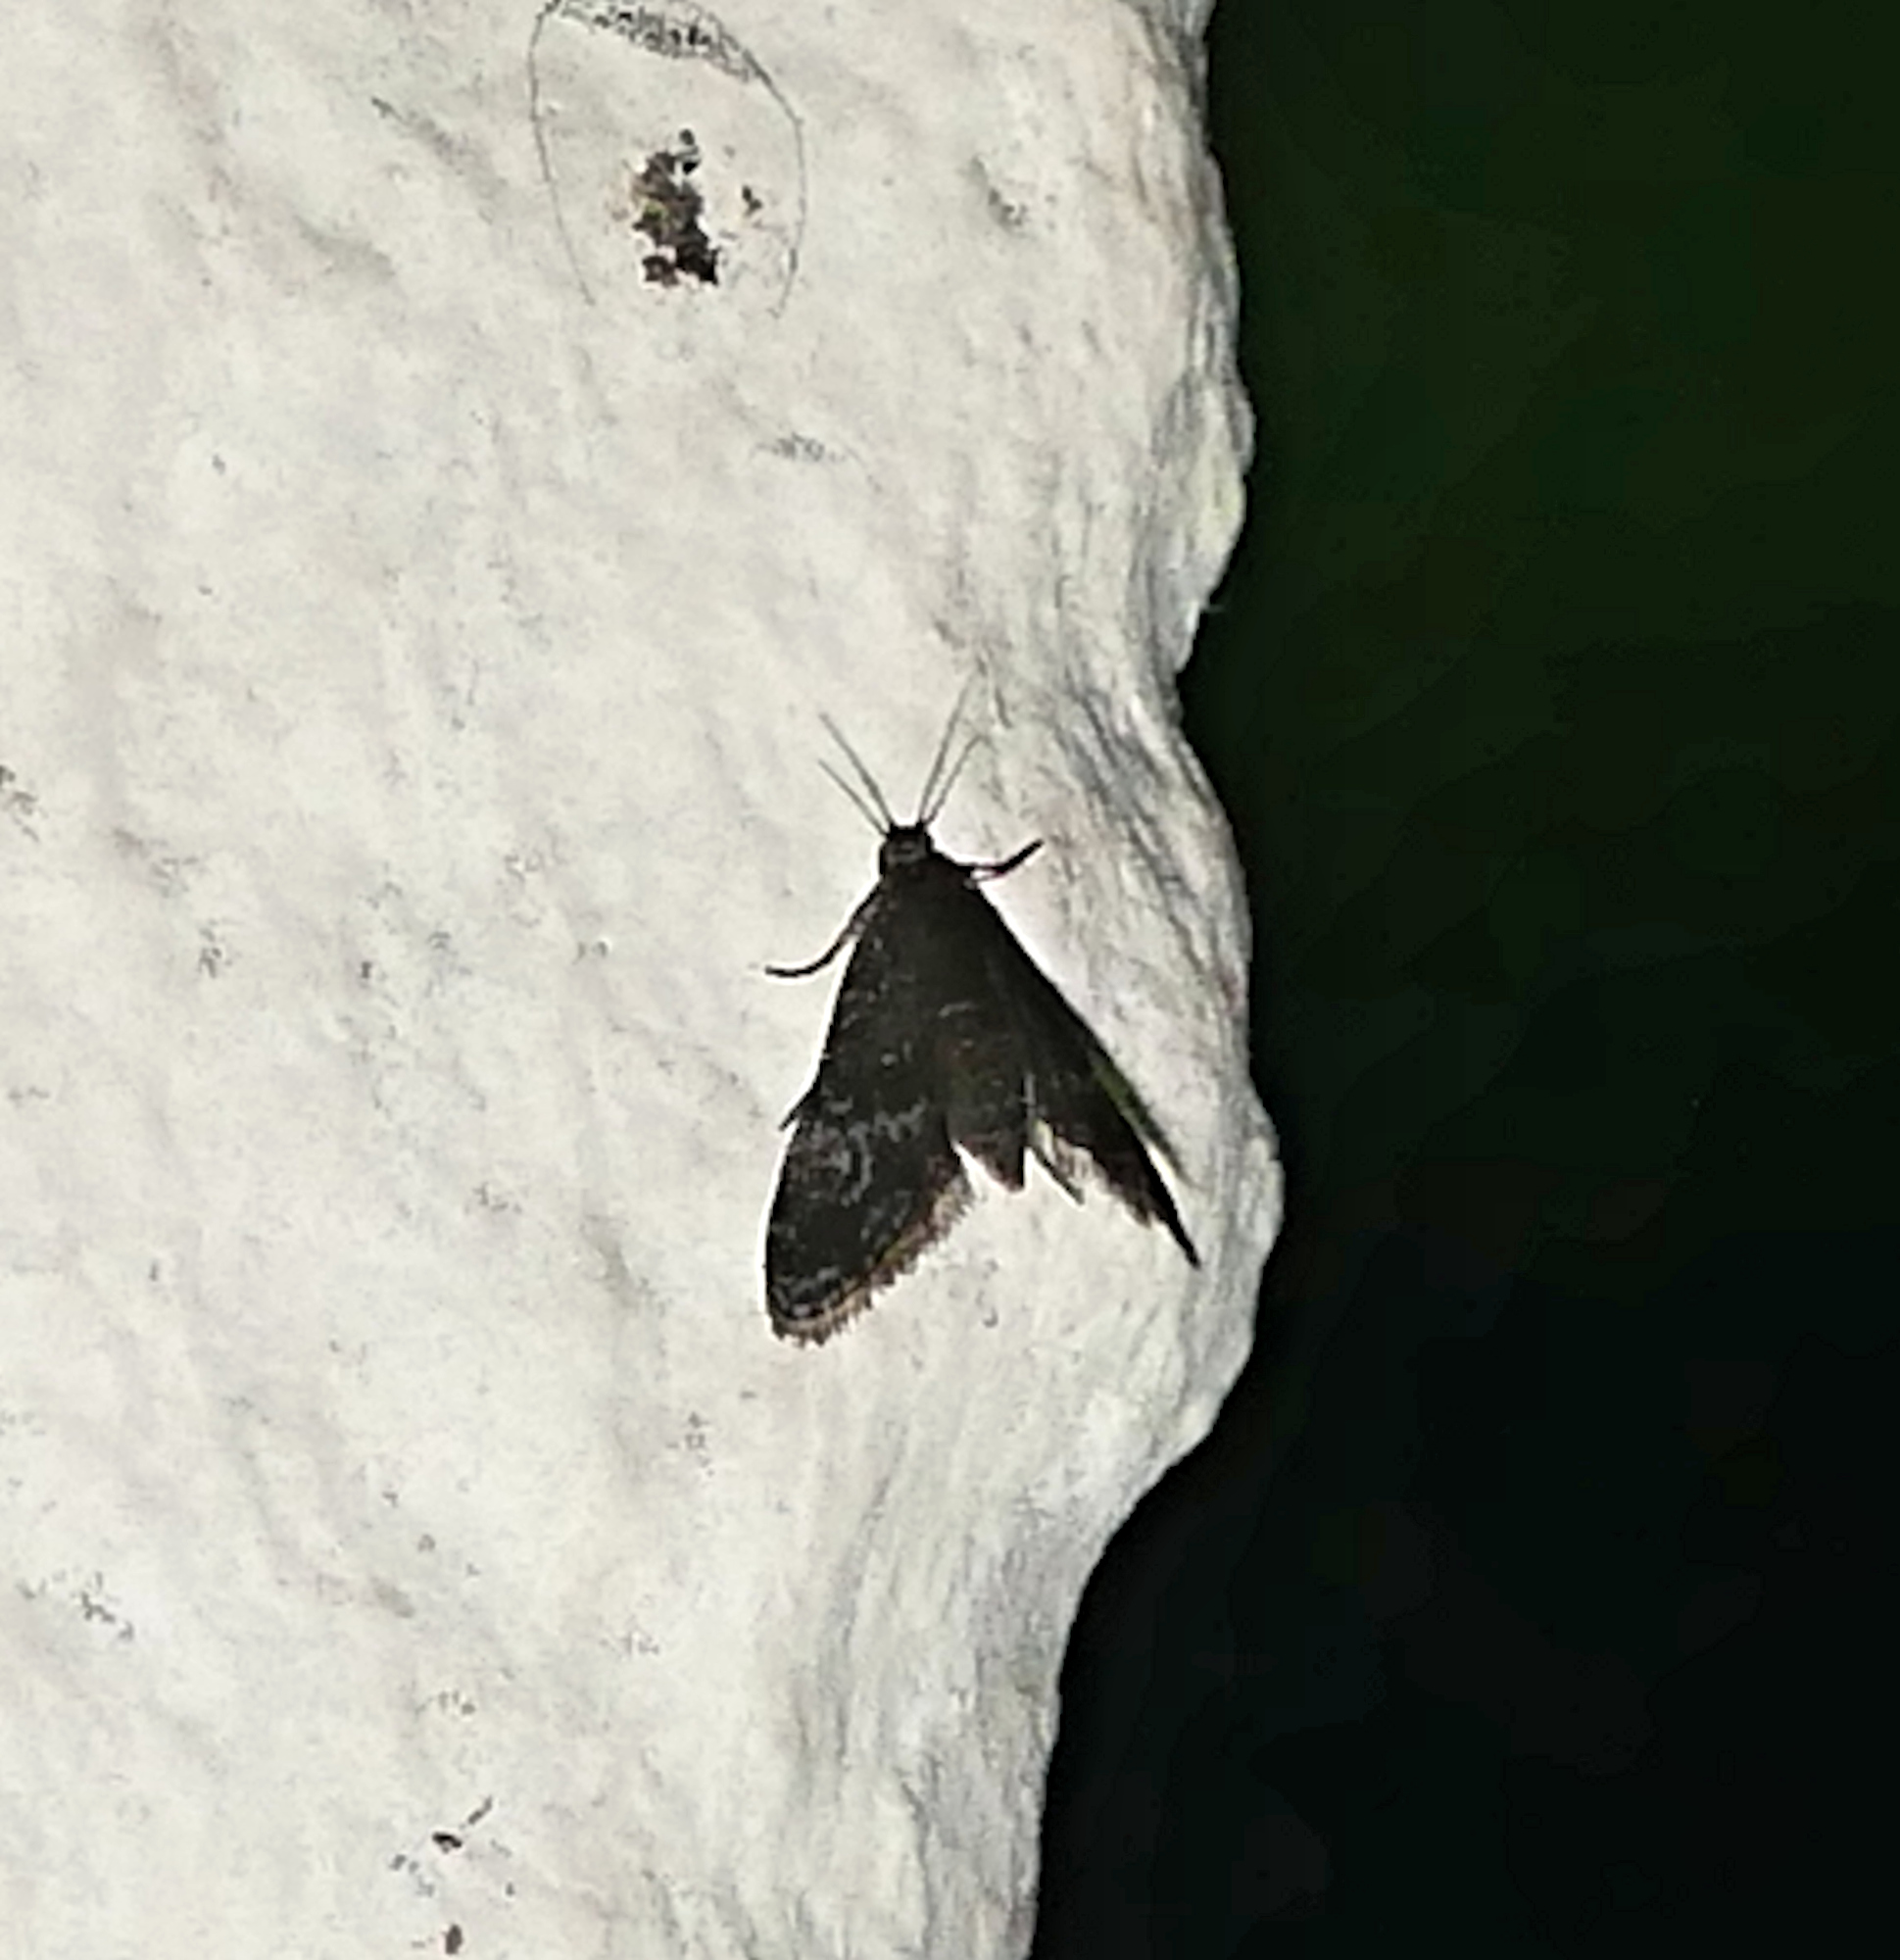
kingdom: Animalia
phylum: Arthropoda
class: Insecta
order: Lepidoptera
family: Crambidae
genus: Elophila
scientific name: Elophila tinealis
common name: Black duckweed moth
